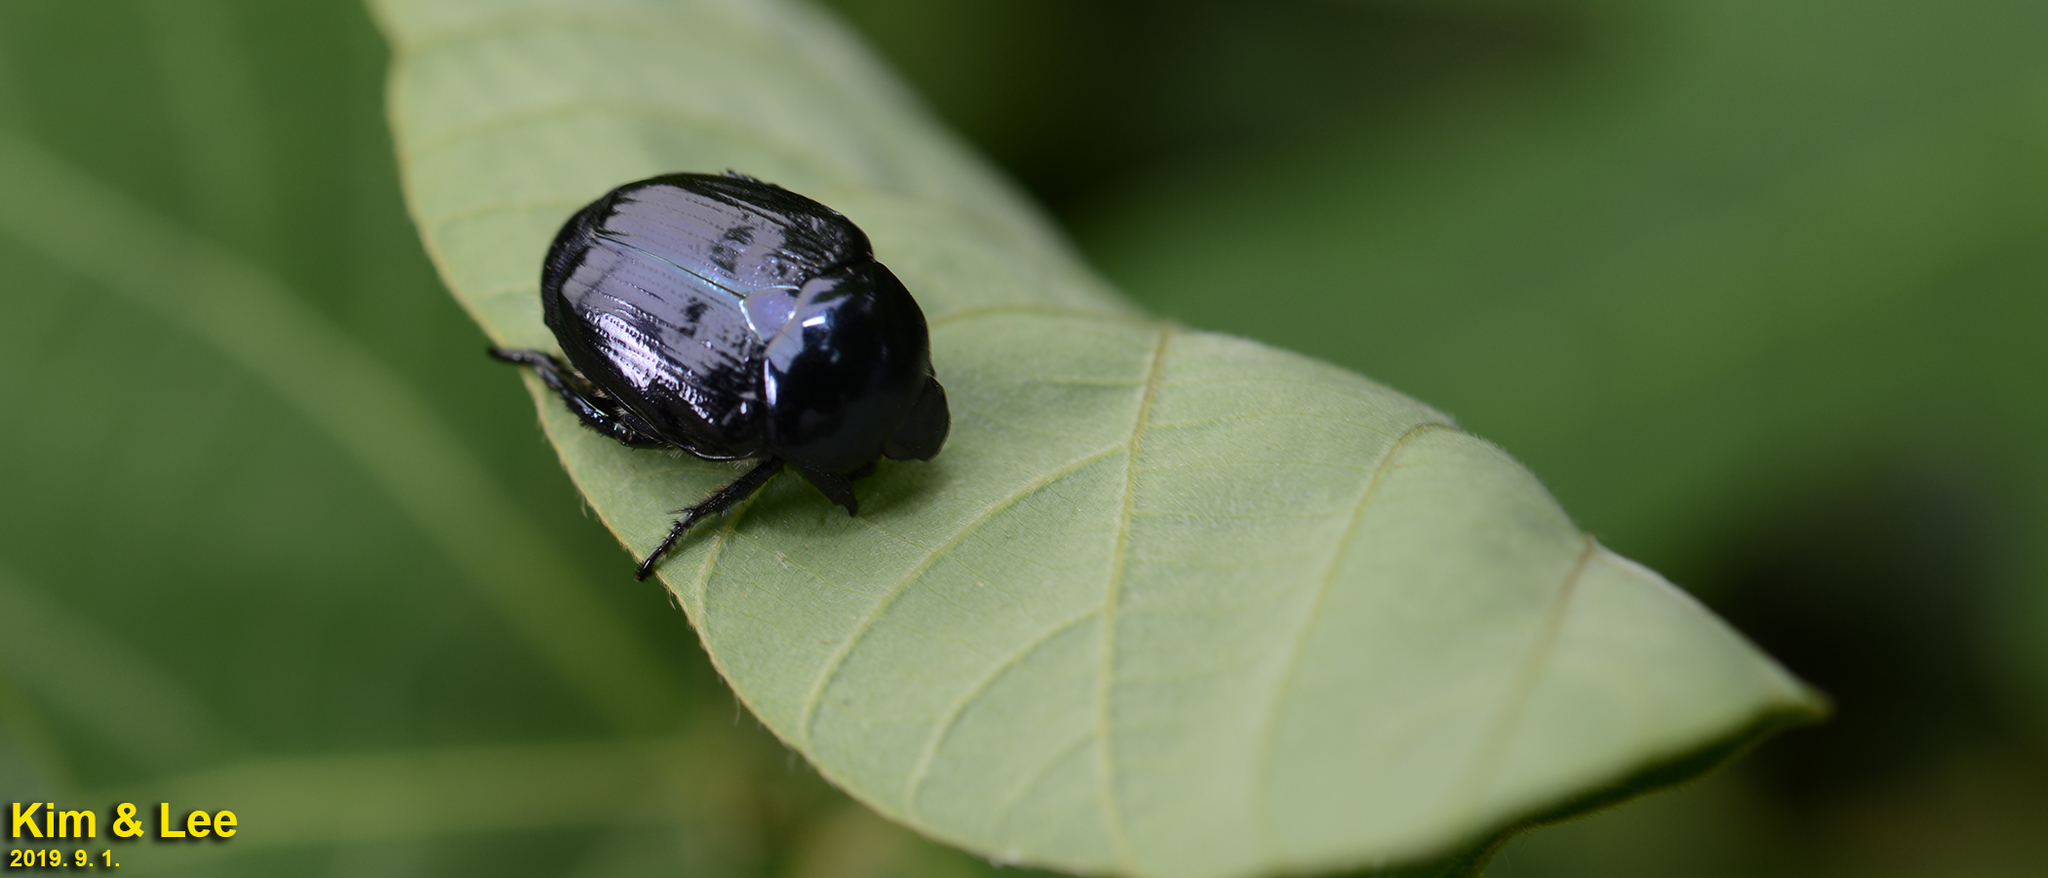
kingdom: Animalia
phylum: Arthropoda
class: Insecta
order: Coleoptera
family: Scarabaeidae
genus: Popillia
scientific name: Popillia mutans
